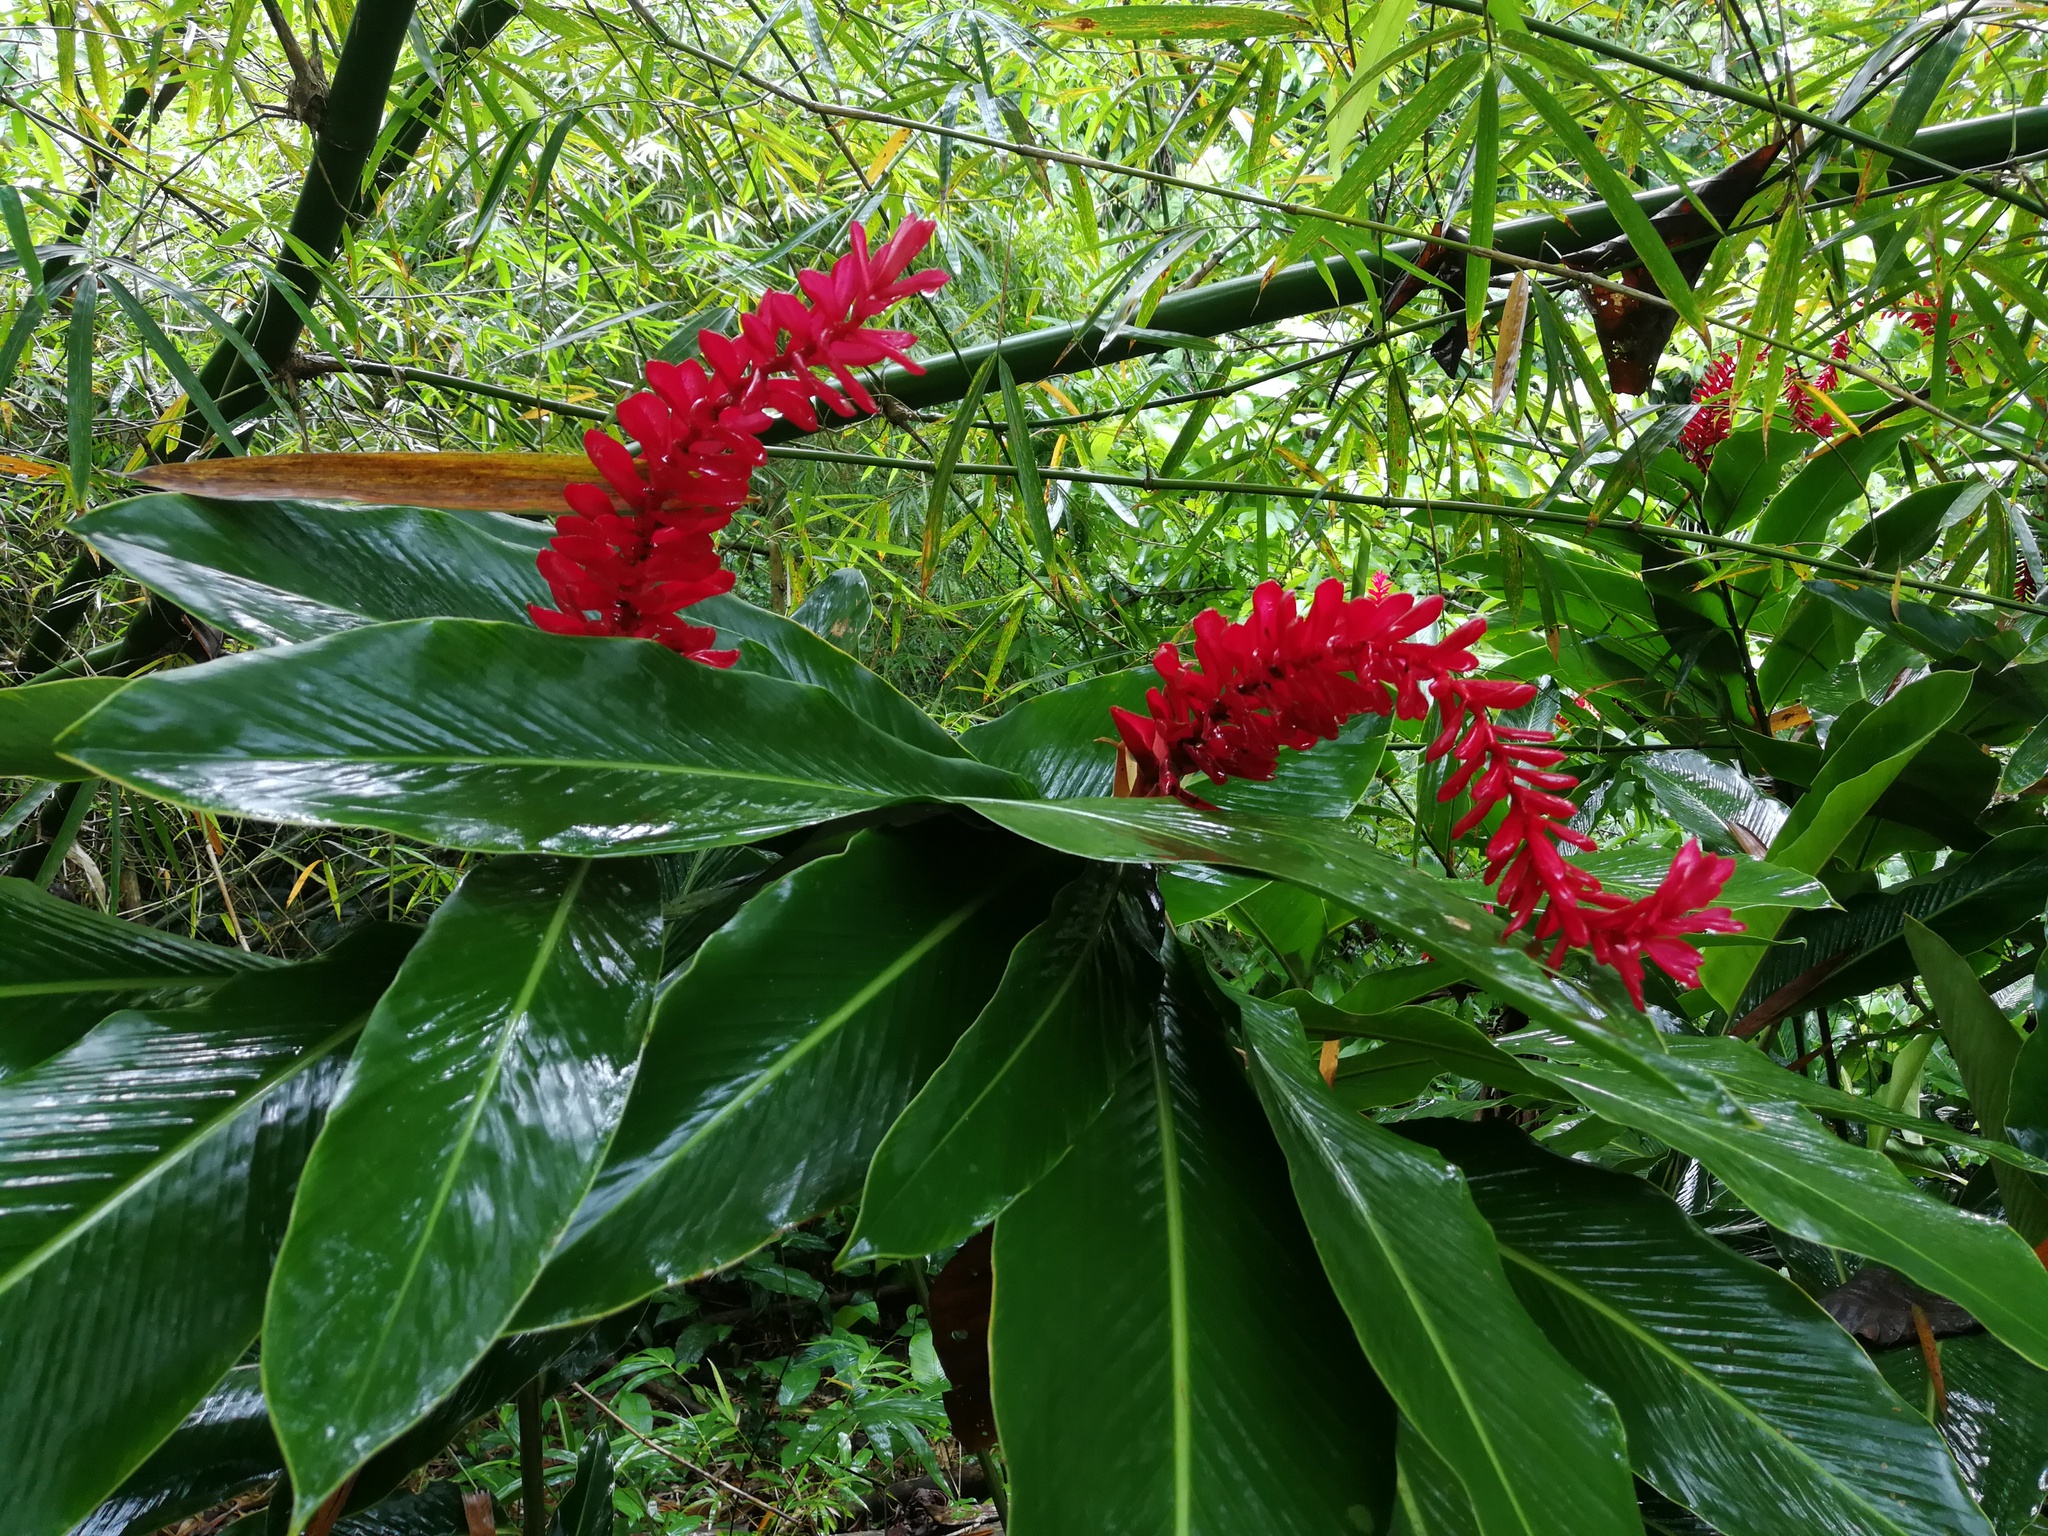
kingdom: Plantae
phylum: Tracheophyta
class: Liliopsida
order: Zingiberales
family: Zingiberaceae
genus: Alpinia
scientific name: Alpinia purpurata
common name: Red ginger
